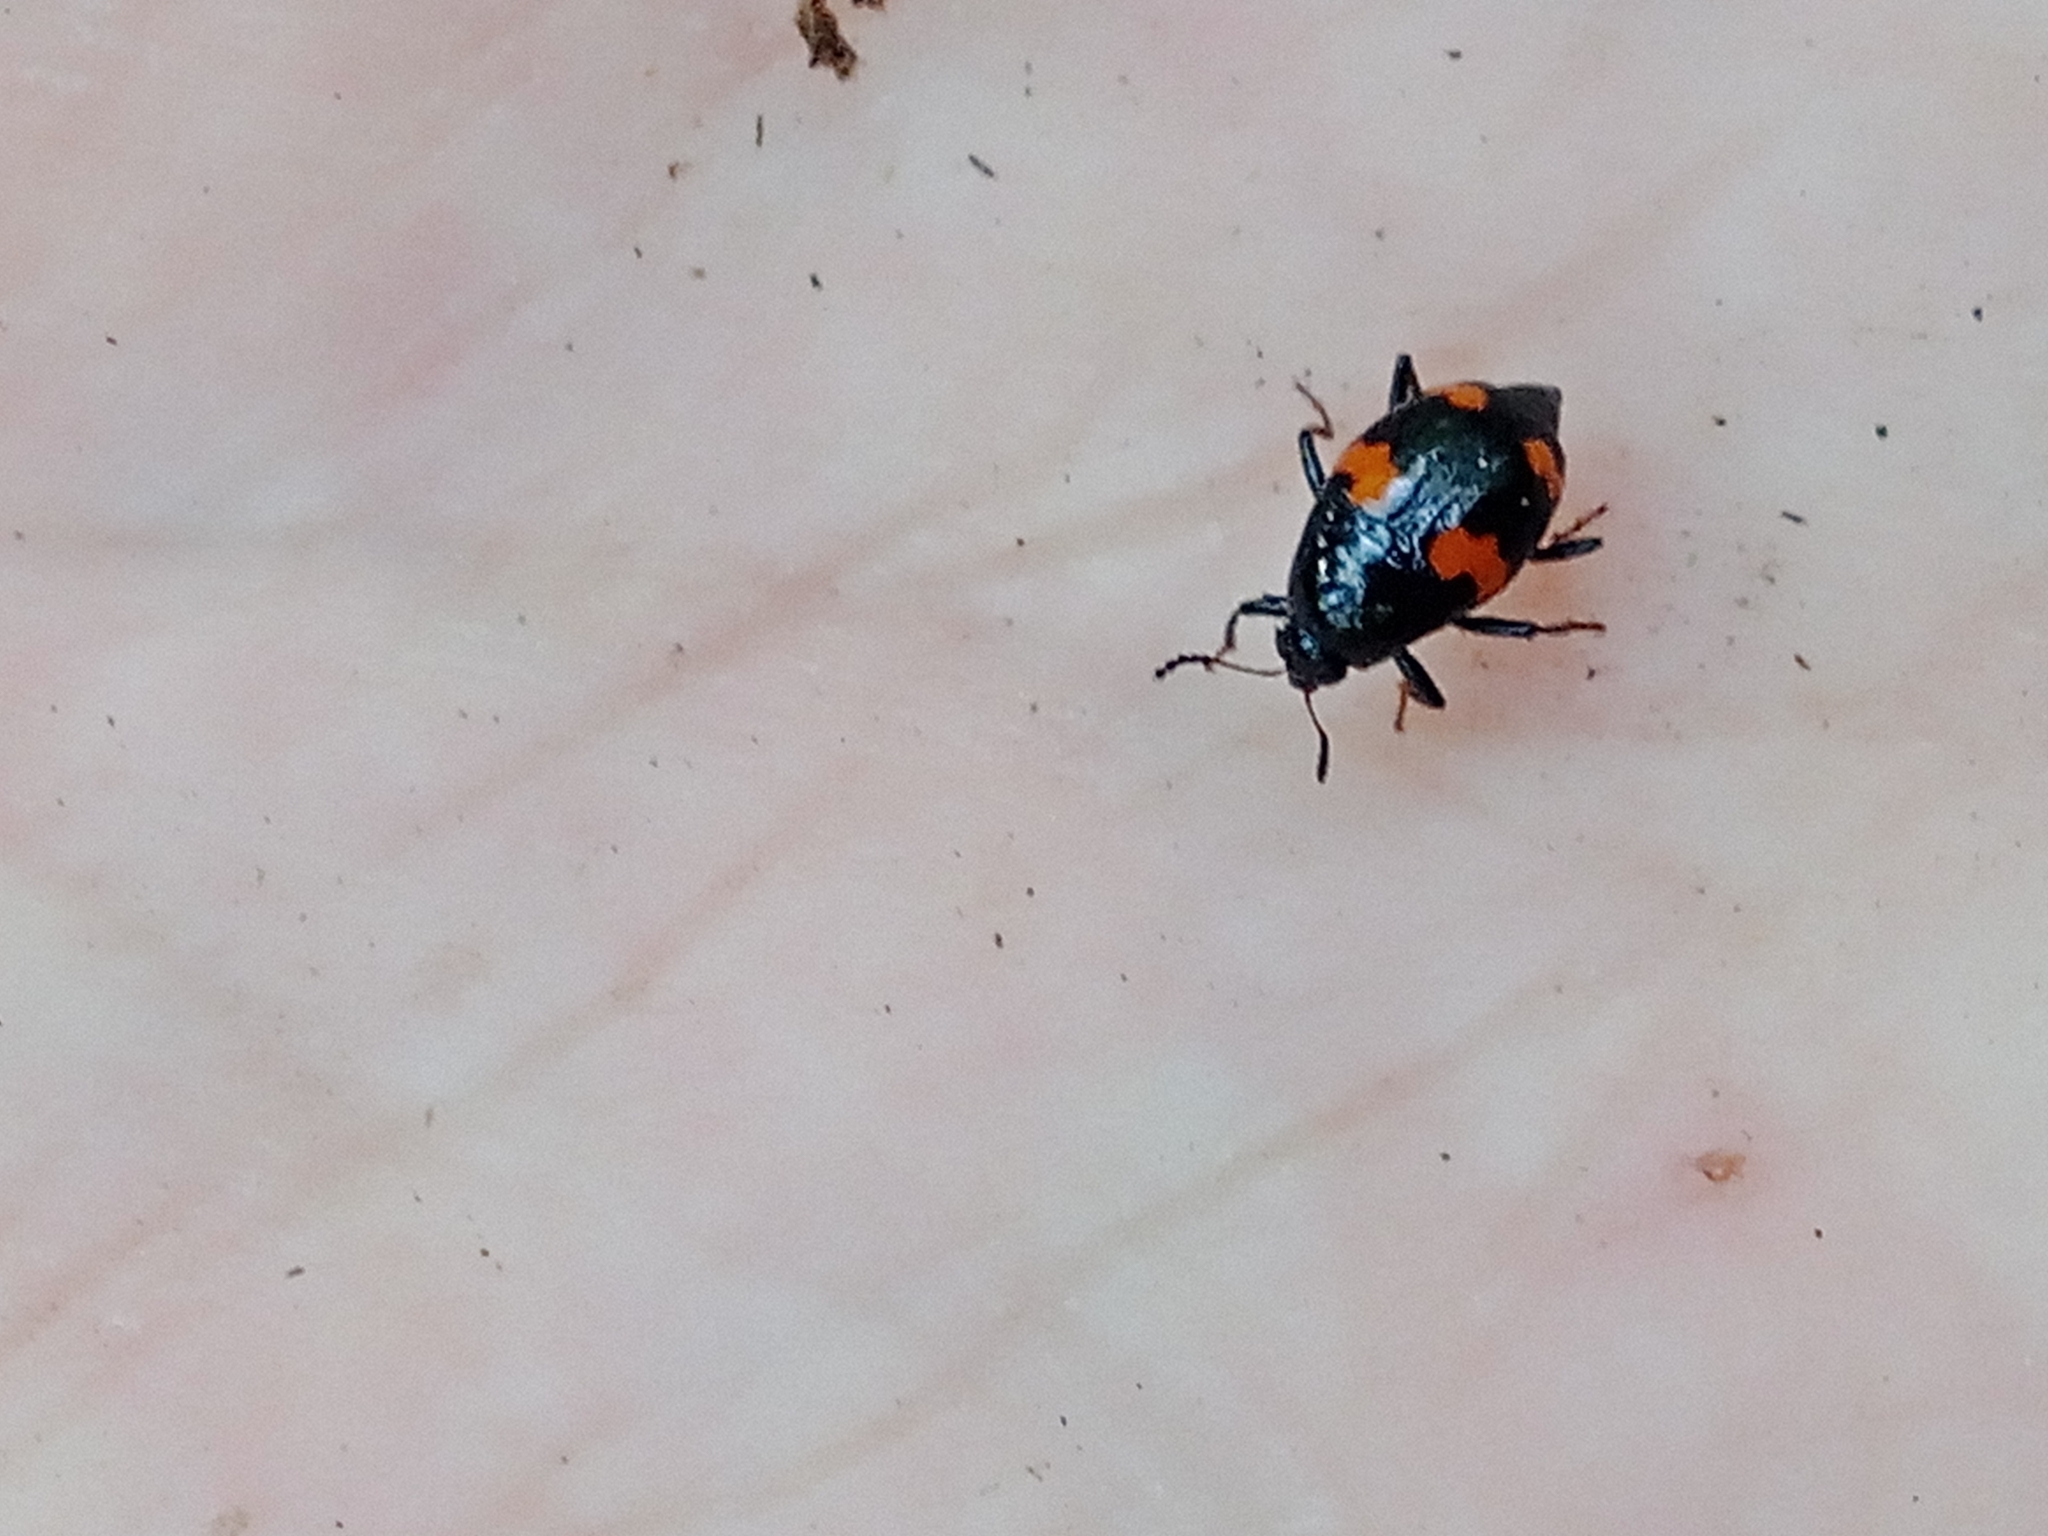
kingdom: Animalia
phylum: Arthropoda
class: Insecta
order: Coleoptera
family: Staphylinidae
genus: Scaphidium
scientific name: Scaphidium quadrimaculatum
